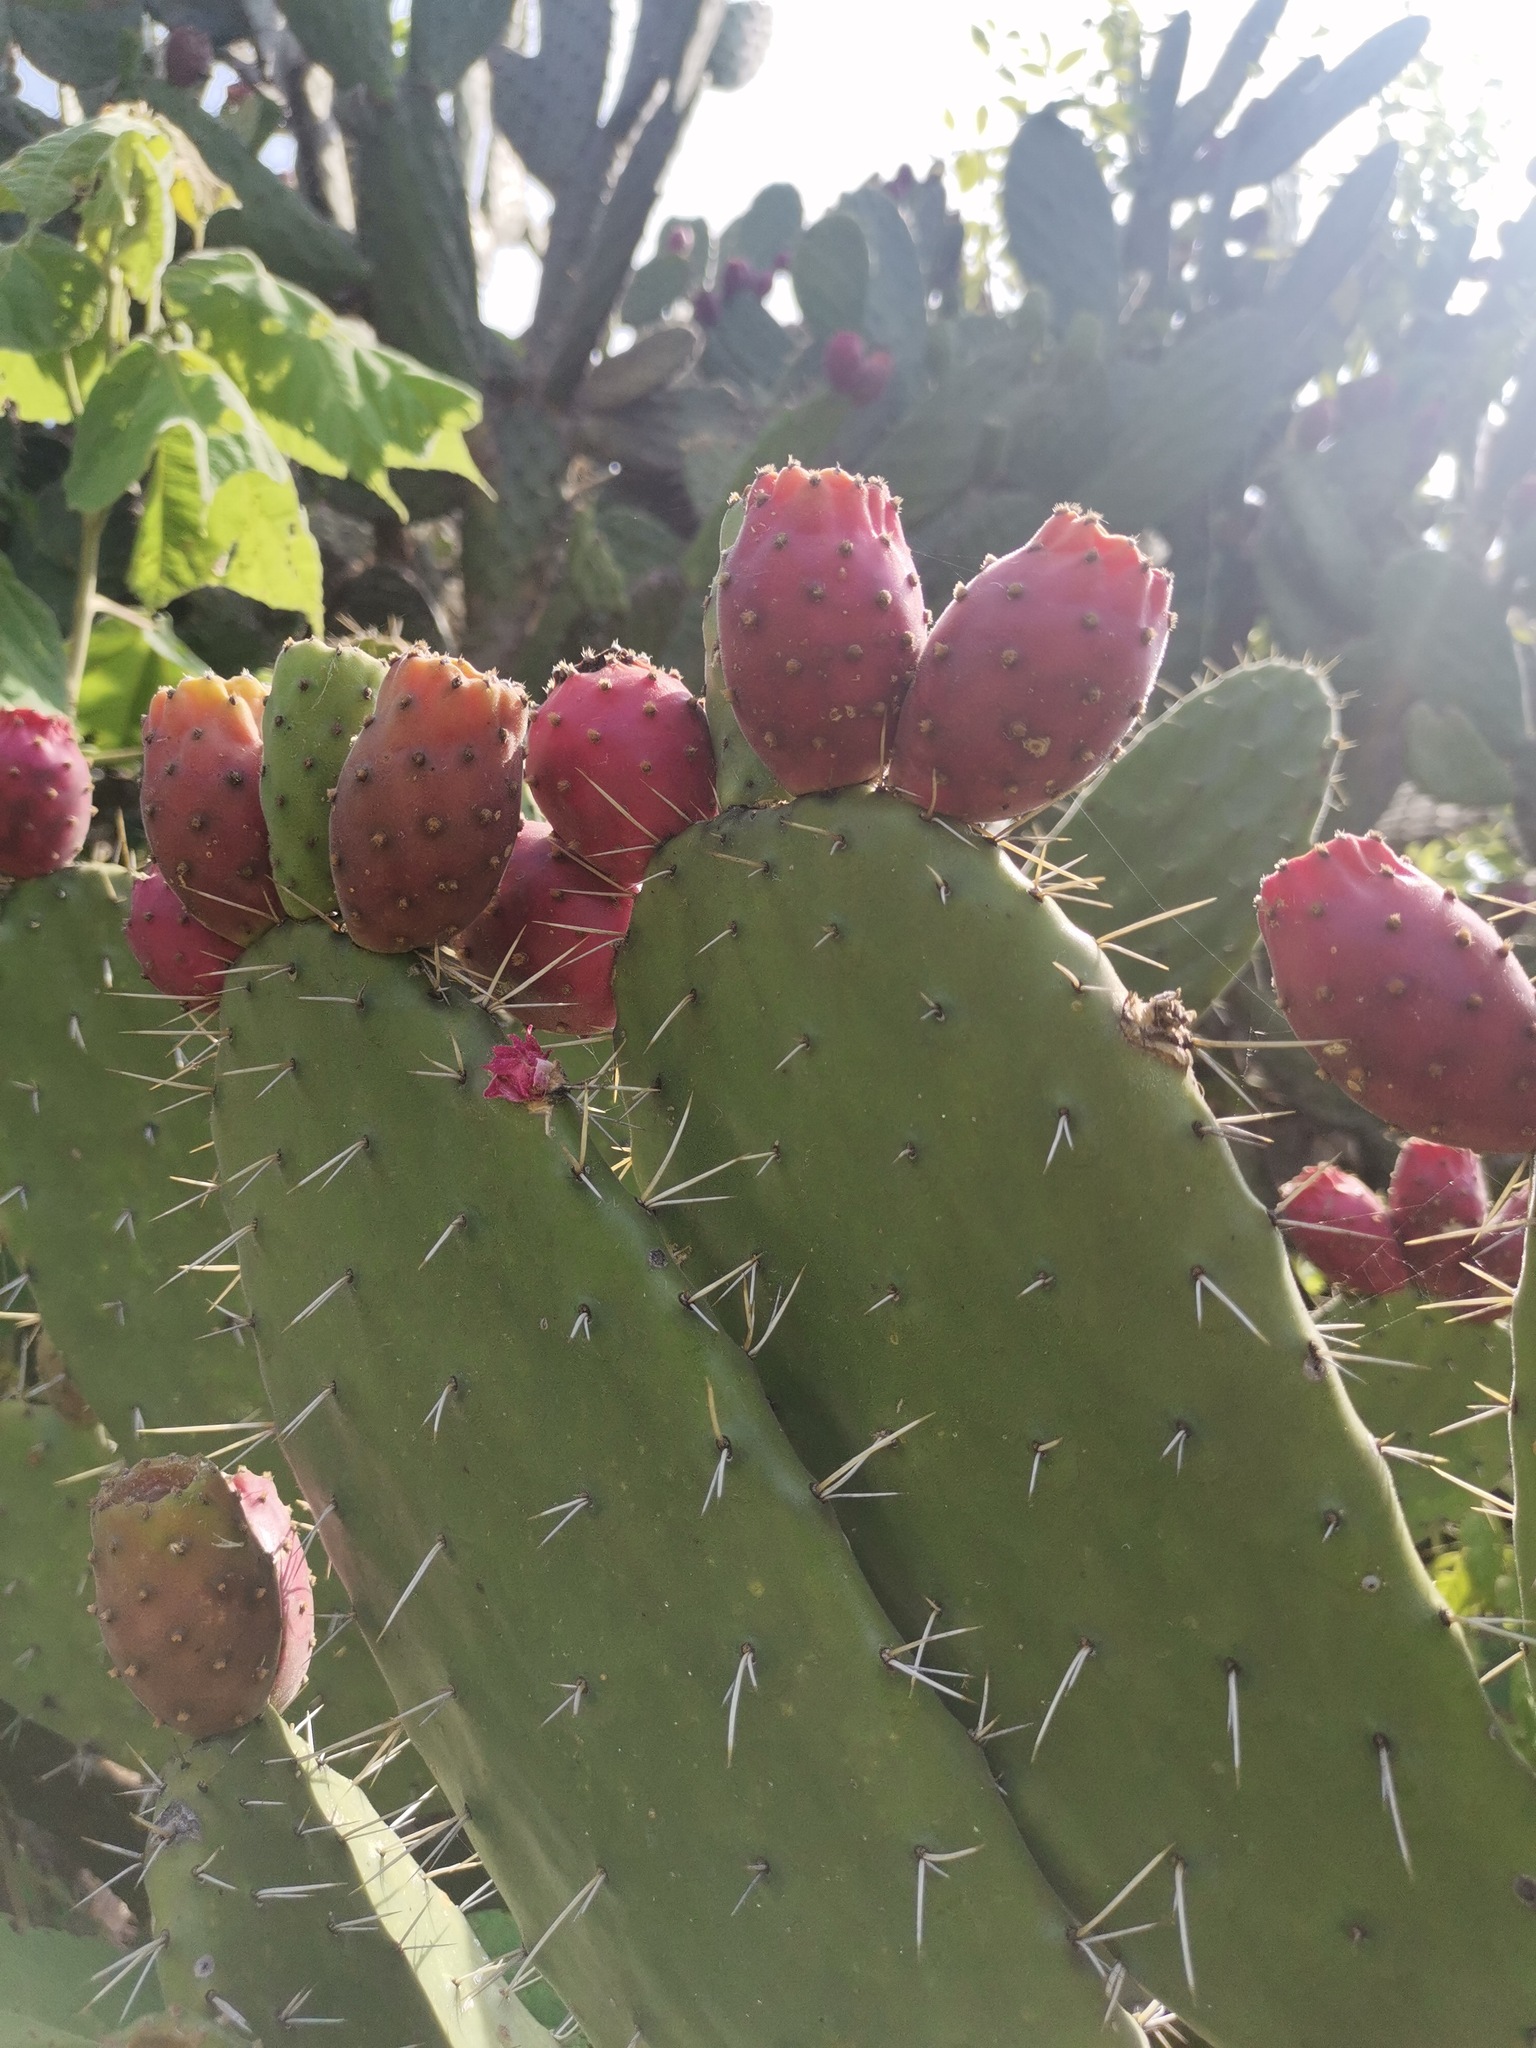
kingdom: Plantae
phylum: Tracheophyta
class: Magnoliopsida
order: Caryophyllales
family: Cactaceae
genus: Opuntia
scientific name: Opuntia tomentosa
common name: Woollyjoint pricklypear
